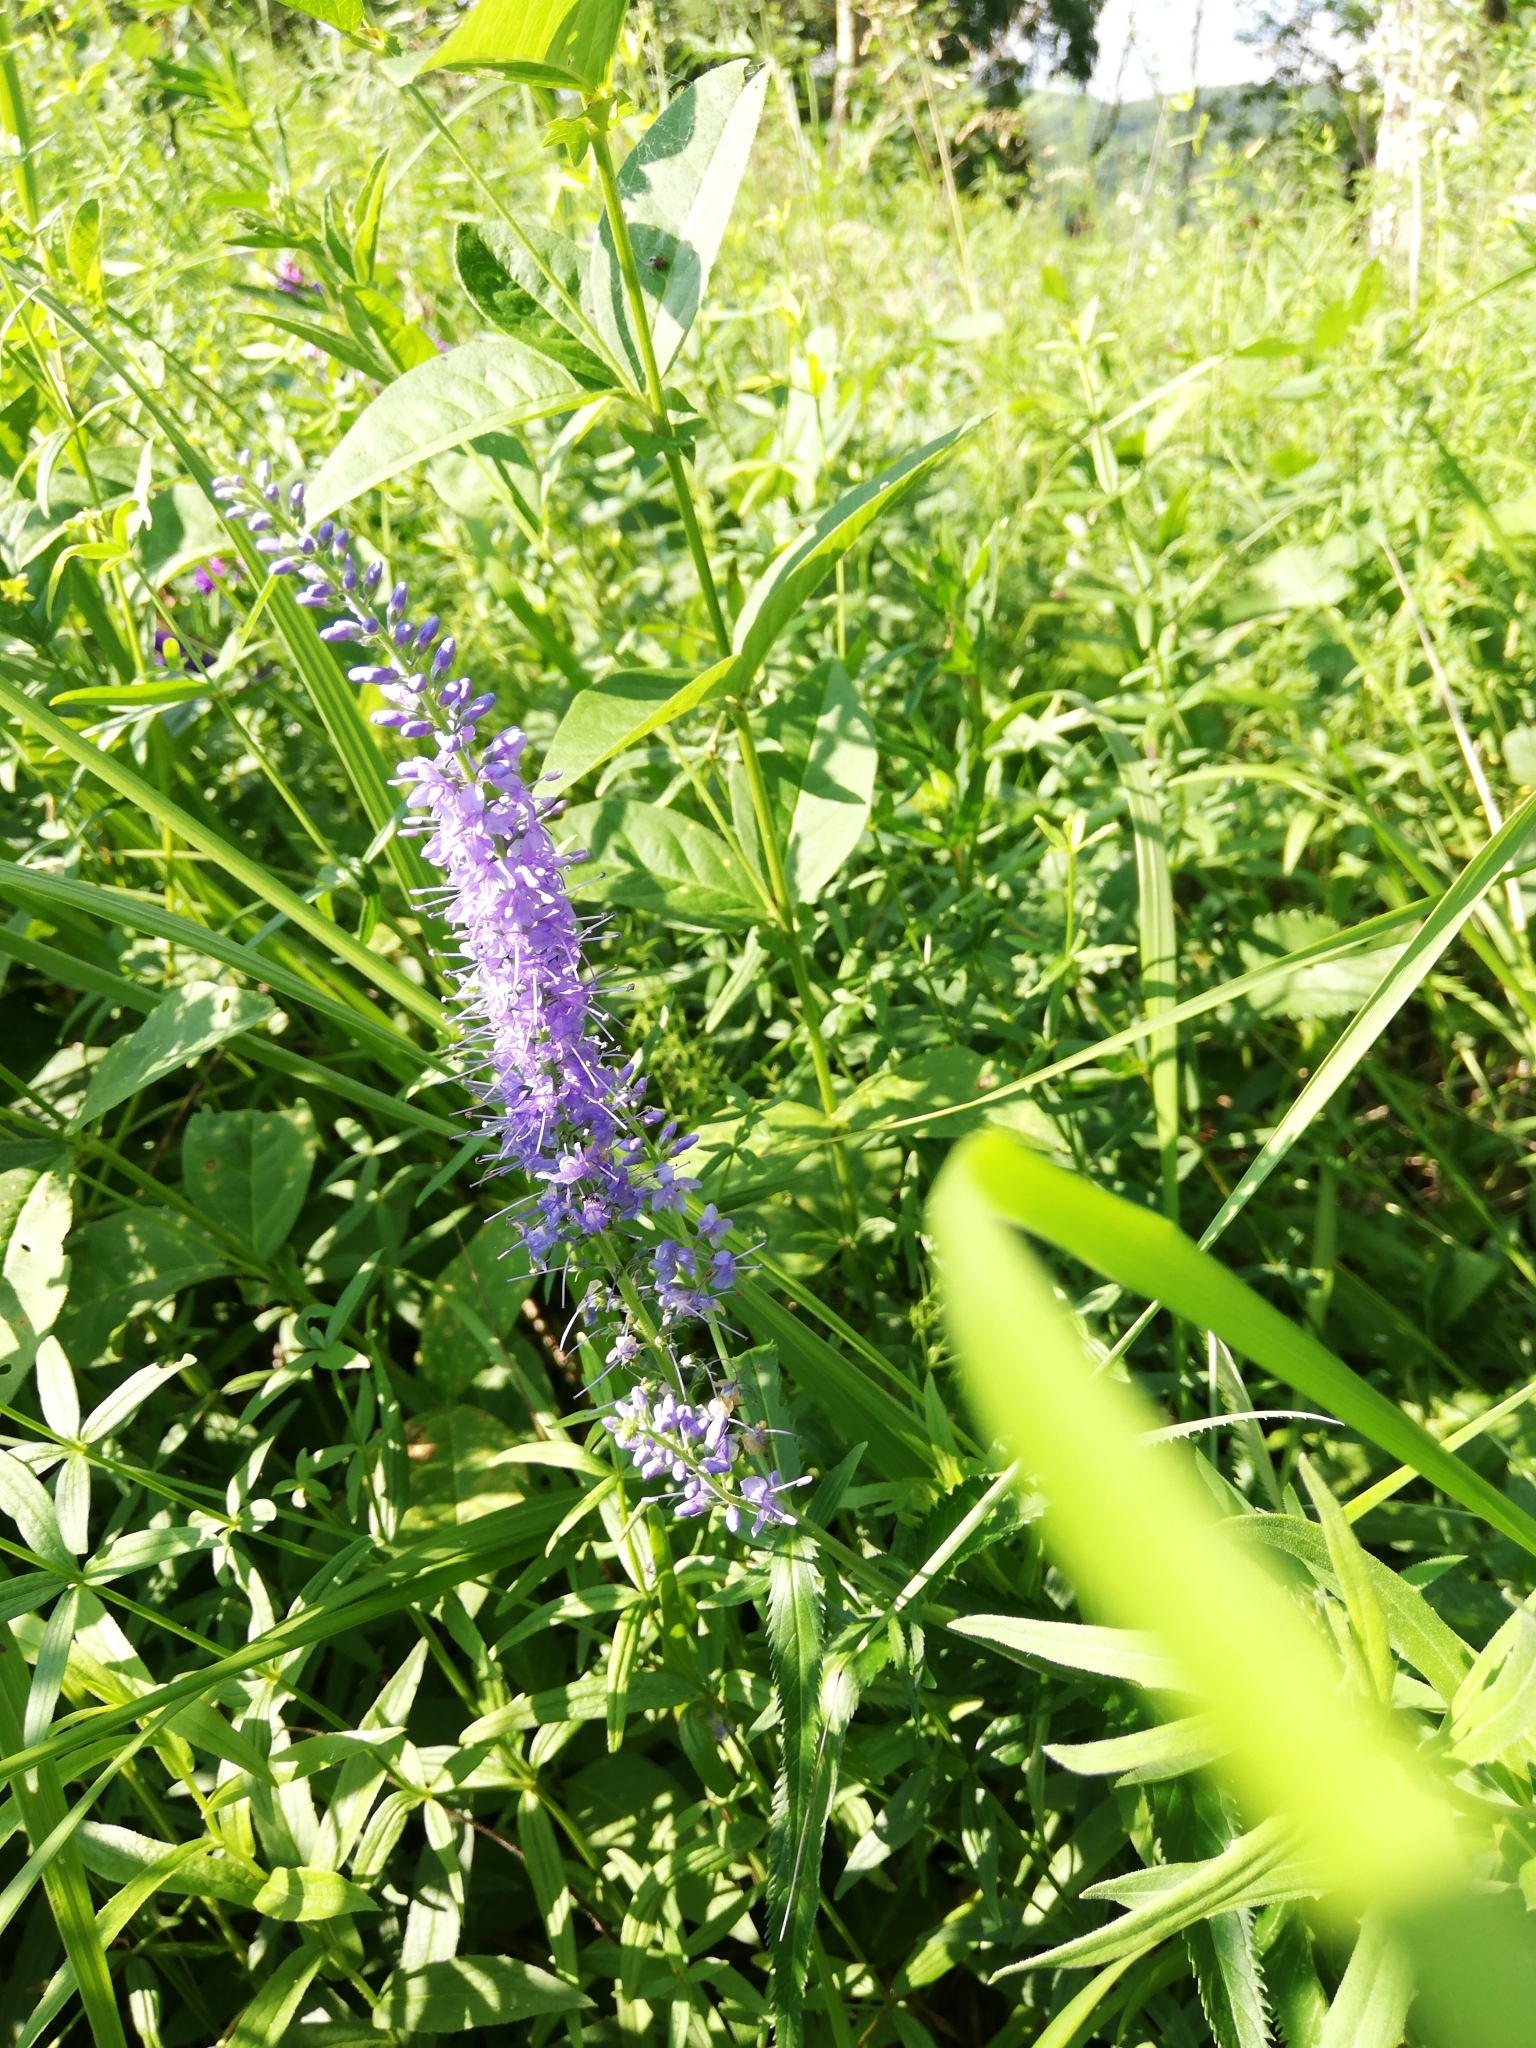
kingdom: Plantae
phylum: Tracheophyta
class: Magnoliopsida
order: Lamiales
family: Plantaginaceae
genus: Veronica
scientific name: Veronica longifolia
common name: Garden speedwell
